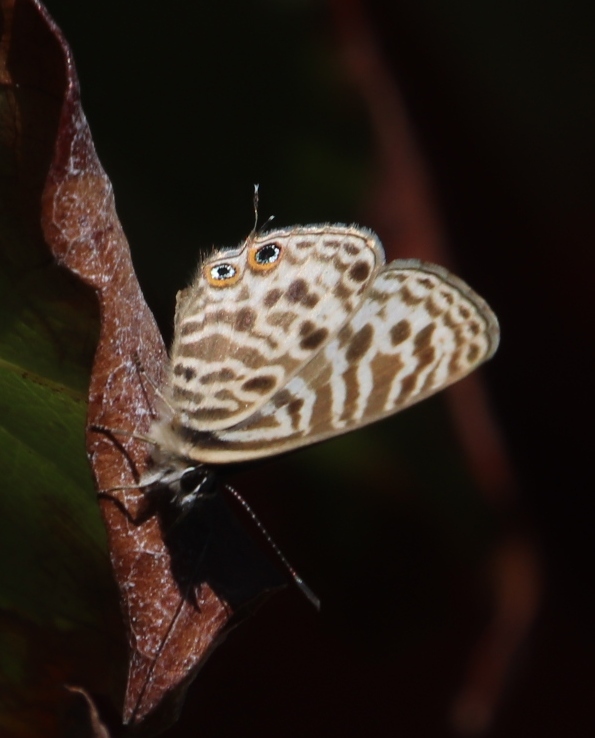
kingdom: Animalia
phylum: Arthropoda
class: Insecta
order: Lepidoptera
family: Lycaenidae
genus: Leptotes
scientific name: Leptotes
